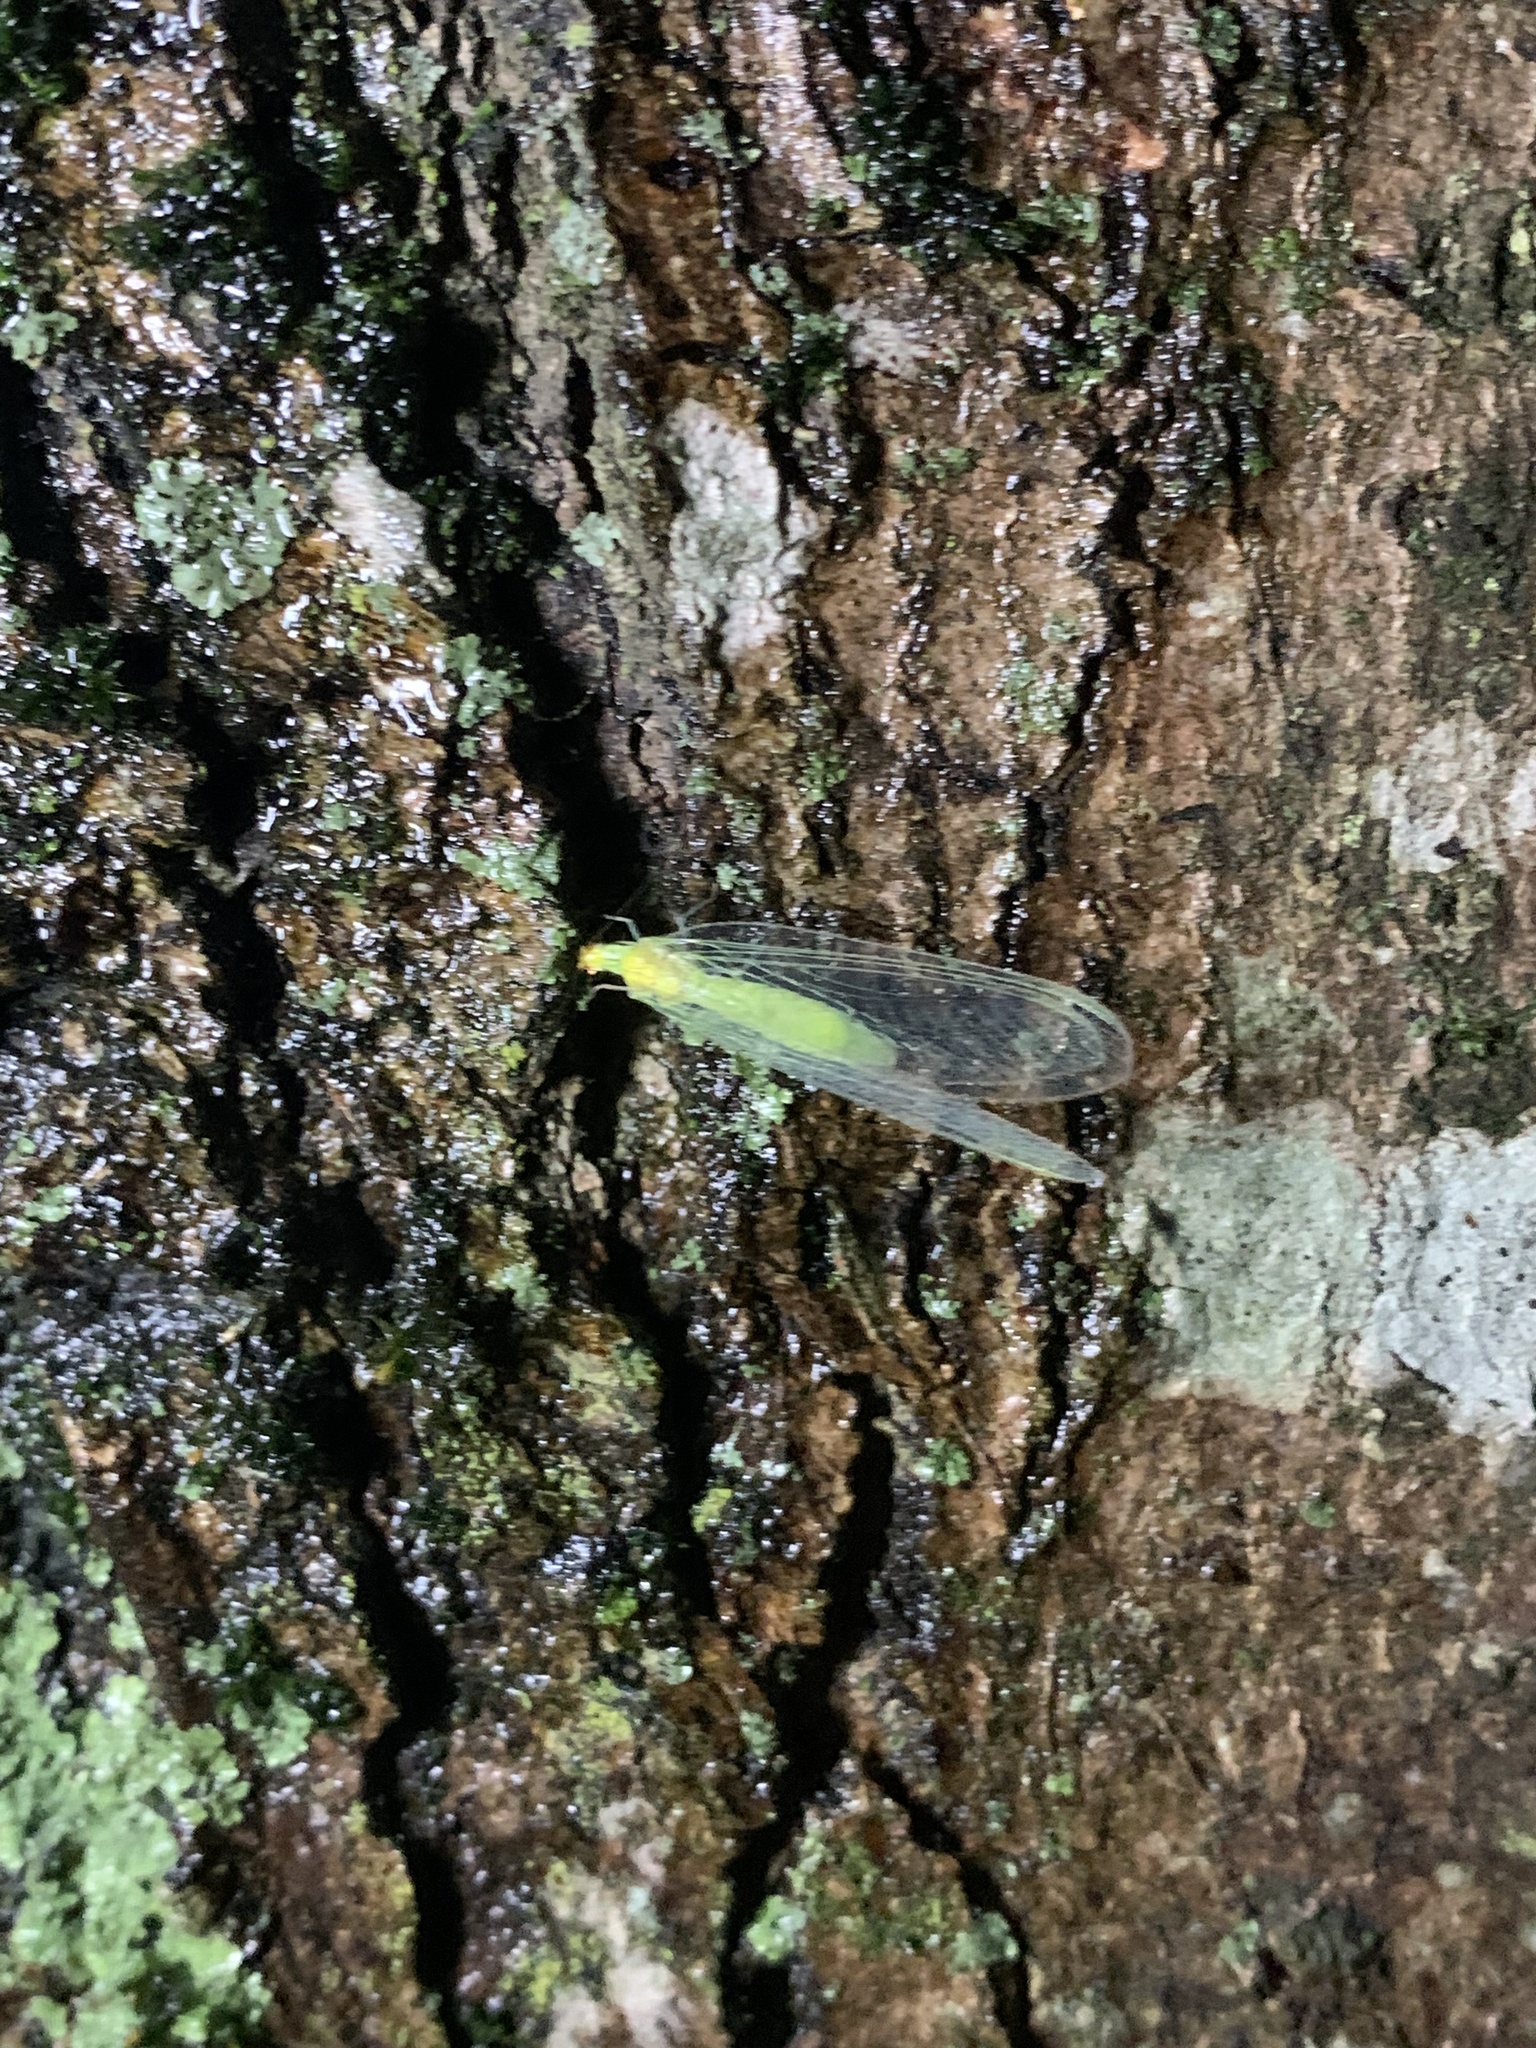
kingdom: Animalia
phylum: Arthropoda
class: Insecta
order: Neuroptera
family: Chrysopidae
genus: Leucochrysa
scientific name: Leucochrysa pavida
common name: Lichen-carrying green lacewing
